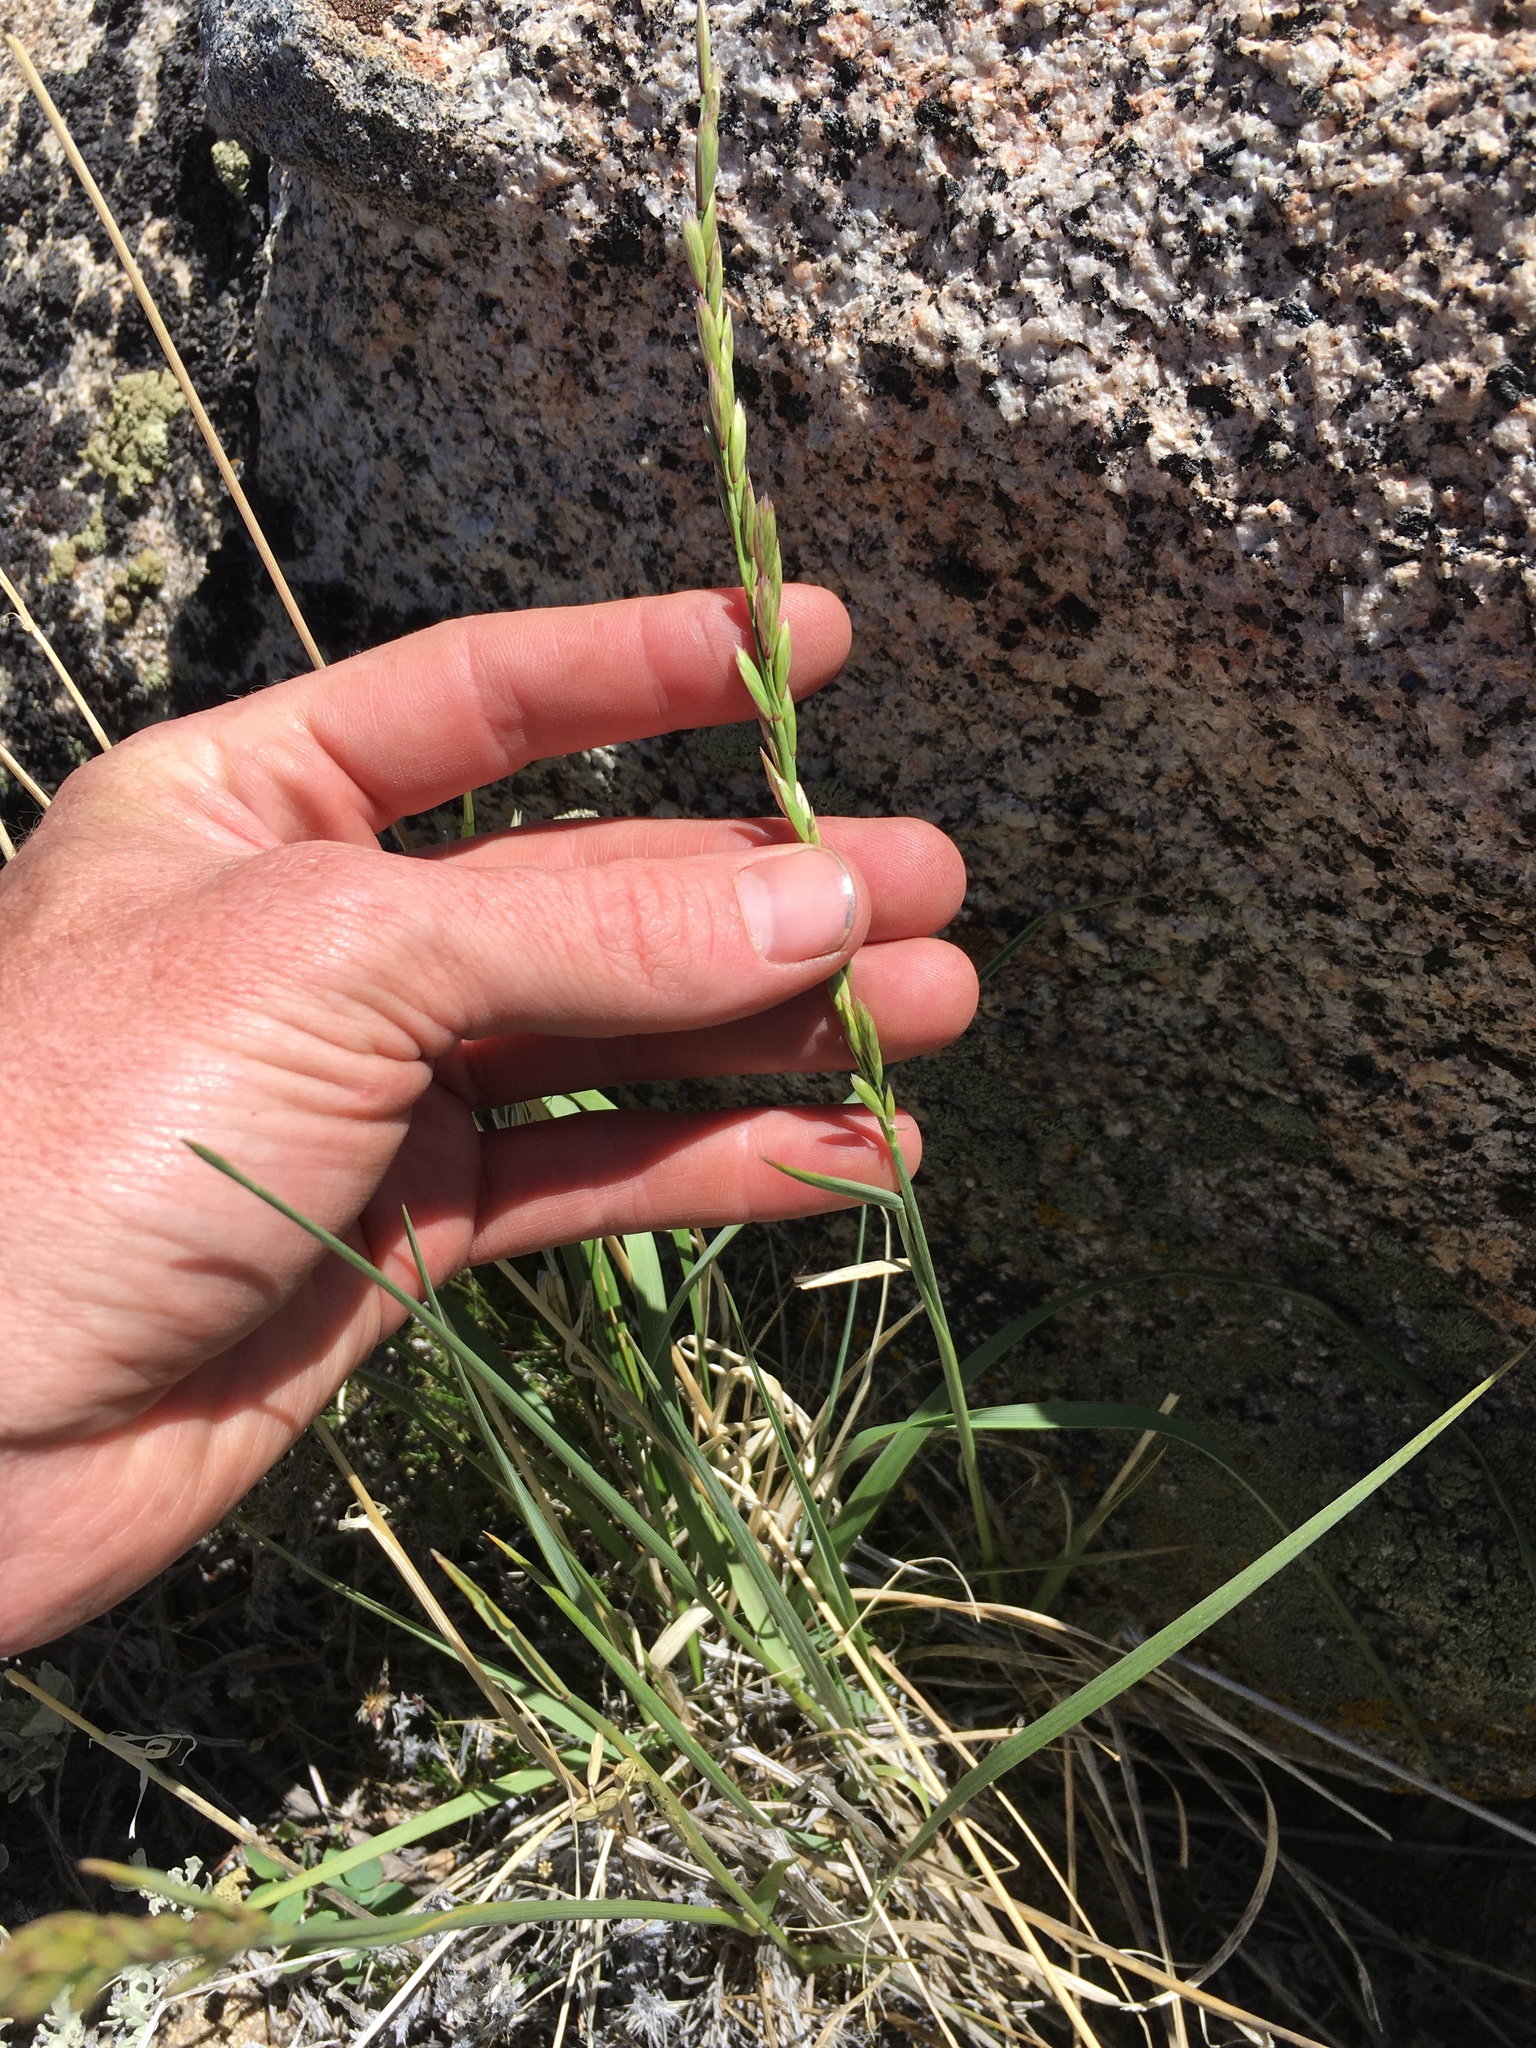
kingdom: Plantae
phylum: Tracheophyta
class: Liliopsida
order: Poales
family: Poaceae
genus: Festuca
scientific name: Festuca kingii
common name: Spike fescue
